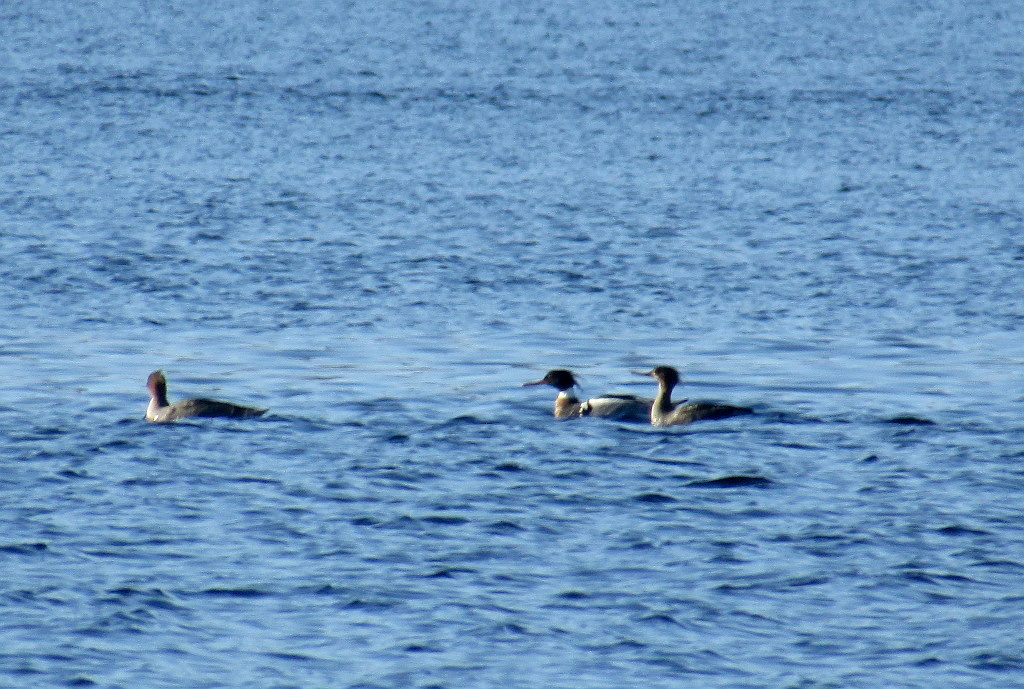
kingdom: Animalia
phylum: Chordata
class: Aves
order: Anseriformes
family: Anatidae
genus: Mergus
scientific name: Mergus serrator
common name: Red-breasted merganser
